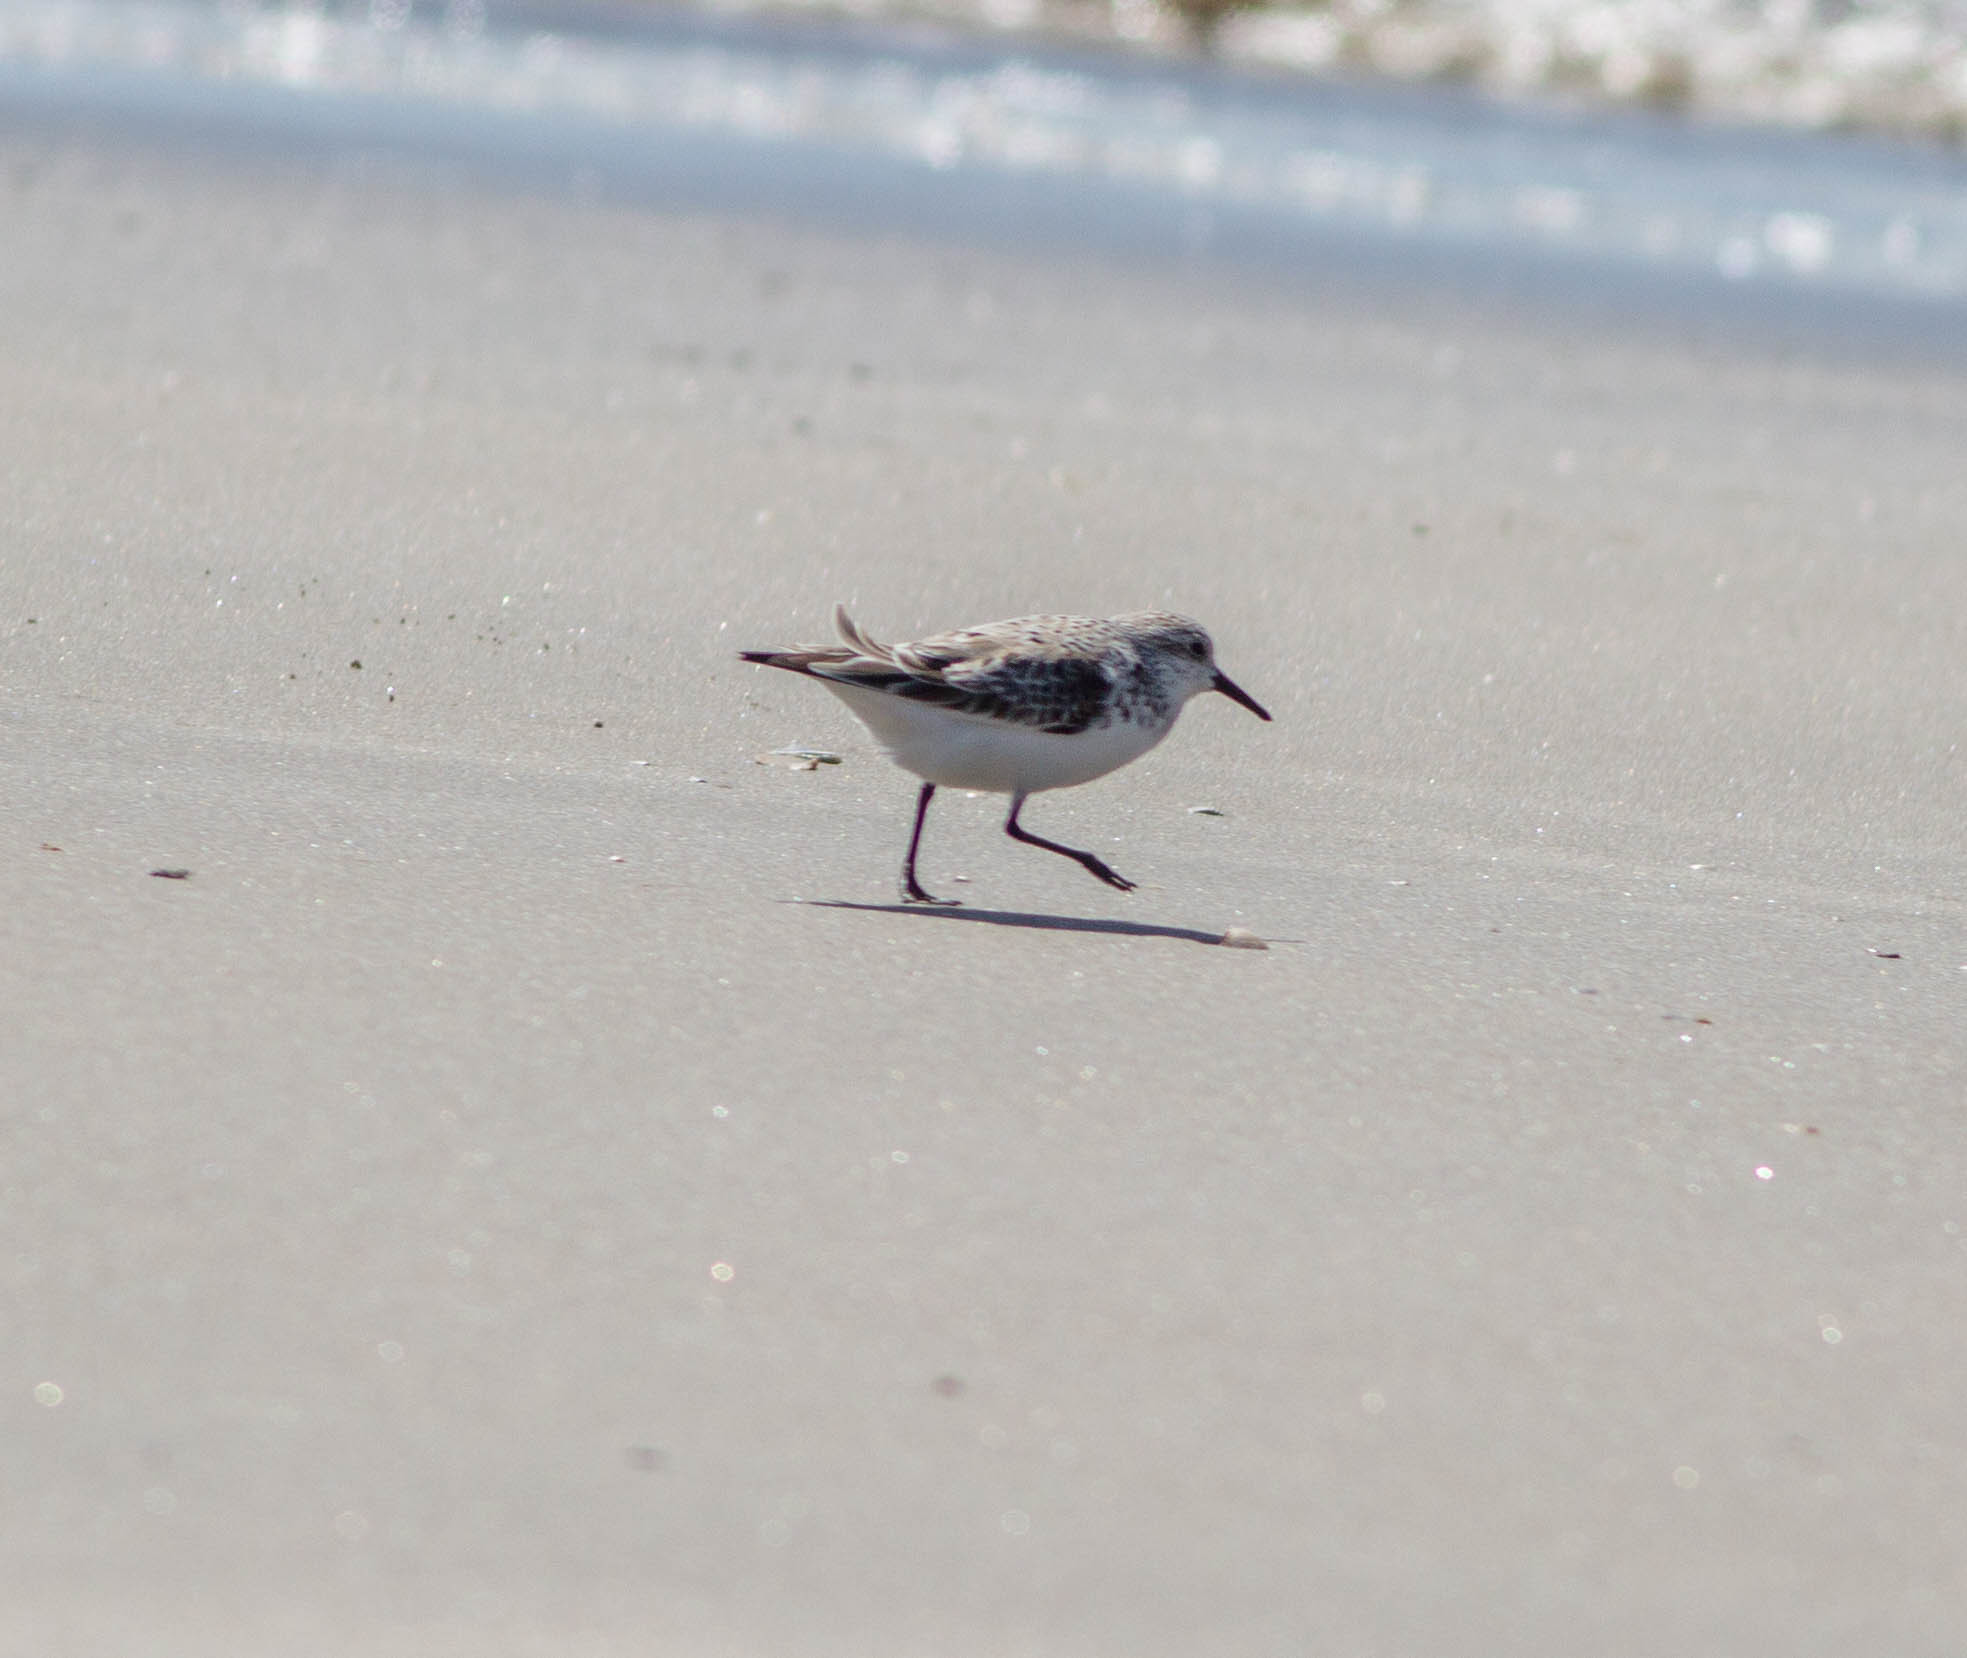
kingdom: Animalia
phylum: Chordata
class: Aves
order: Charadriiformes
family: Scolopacidae
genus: Calidris
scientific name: Calidris alba
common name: Sanderling
